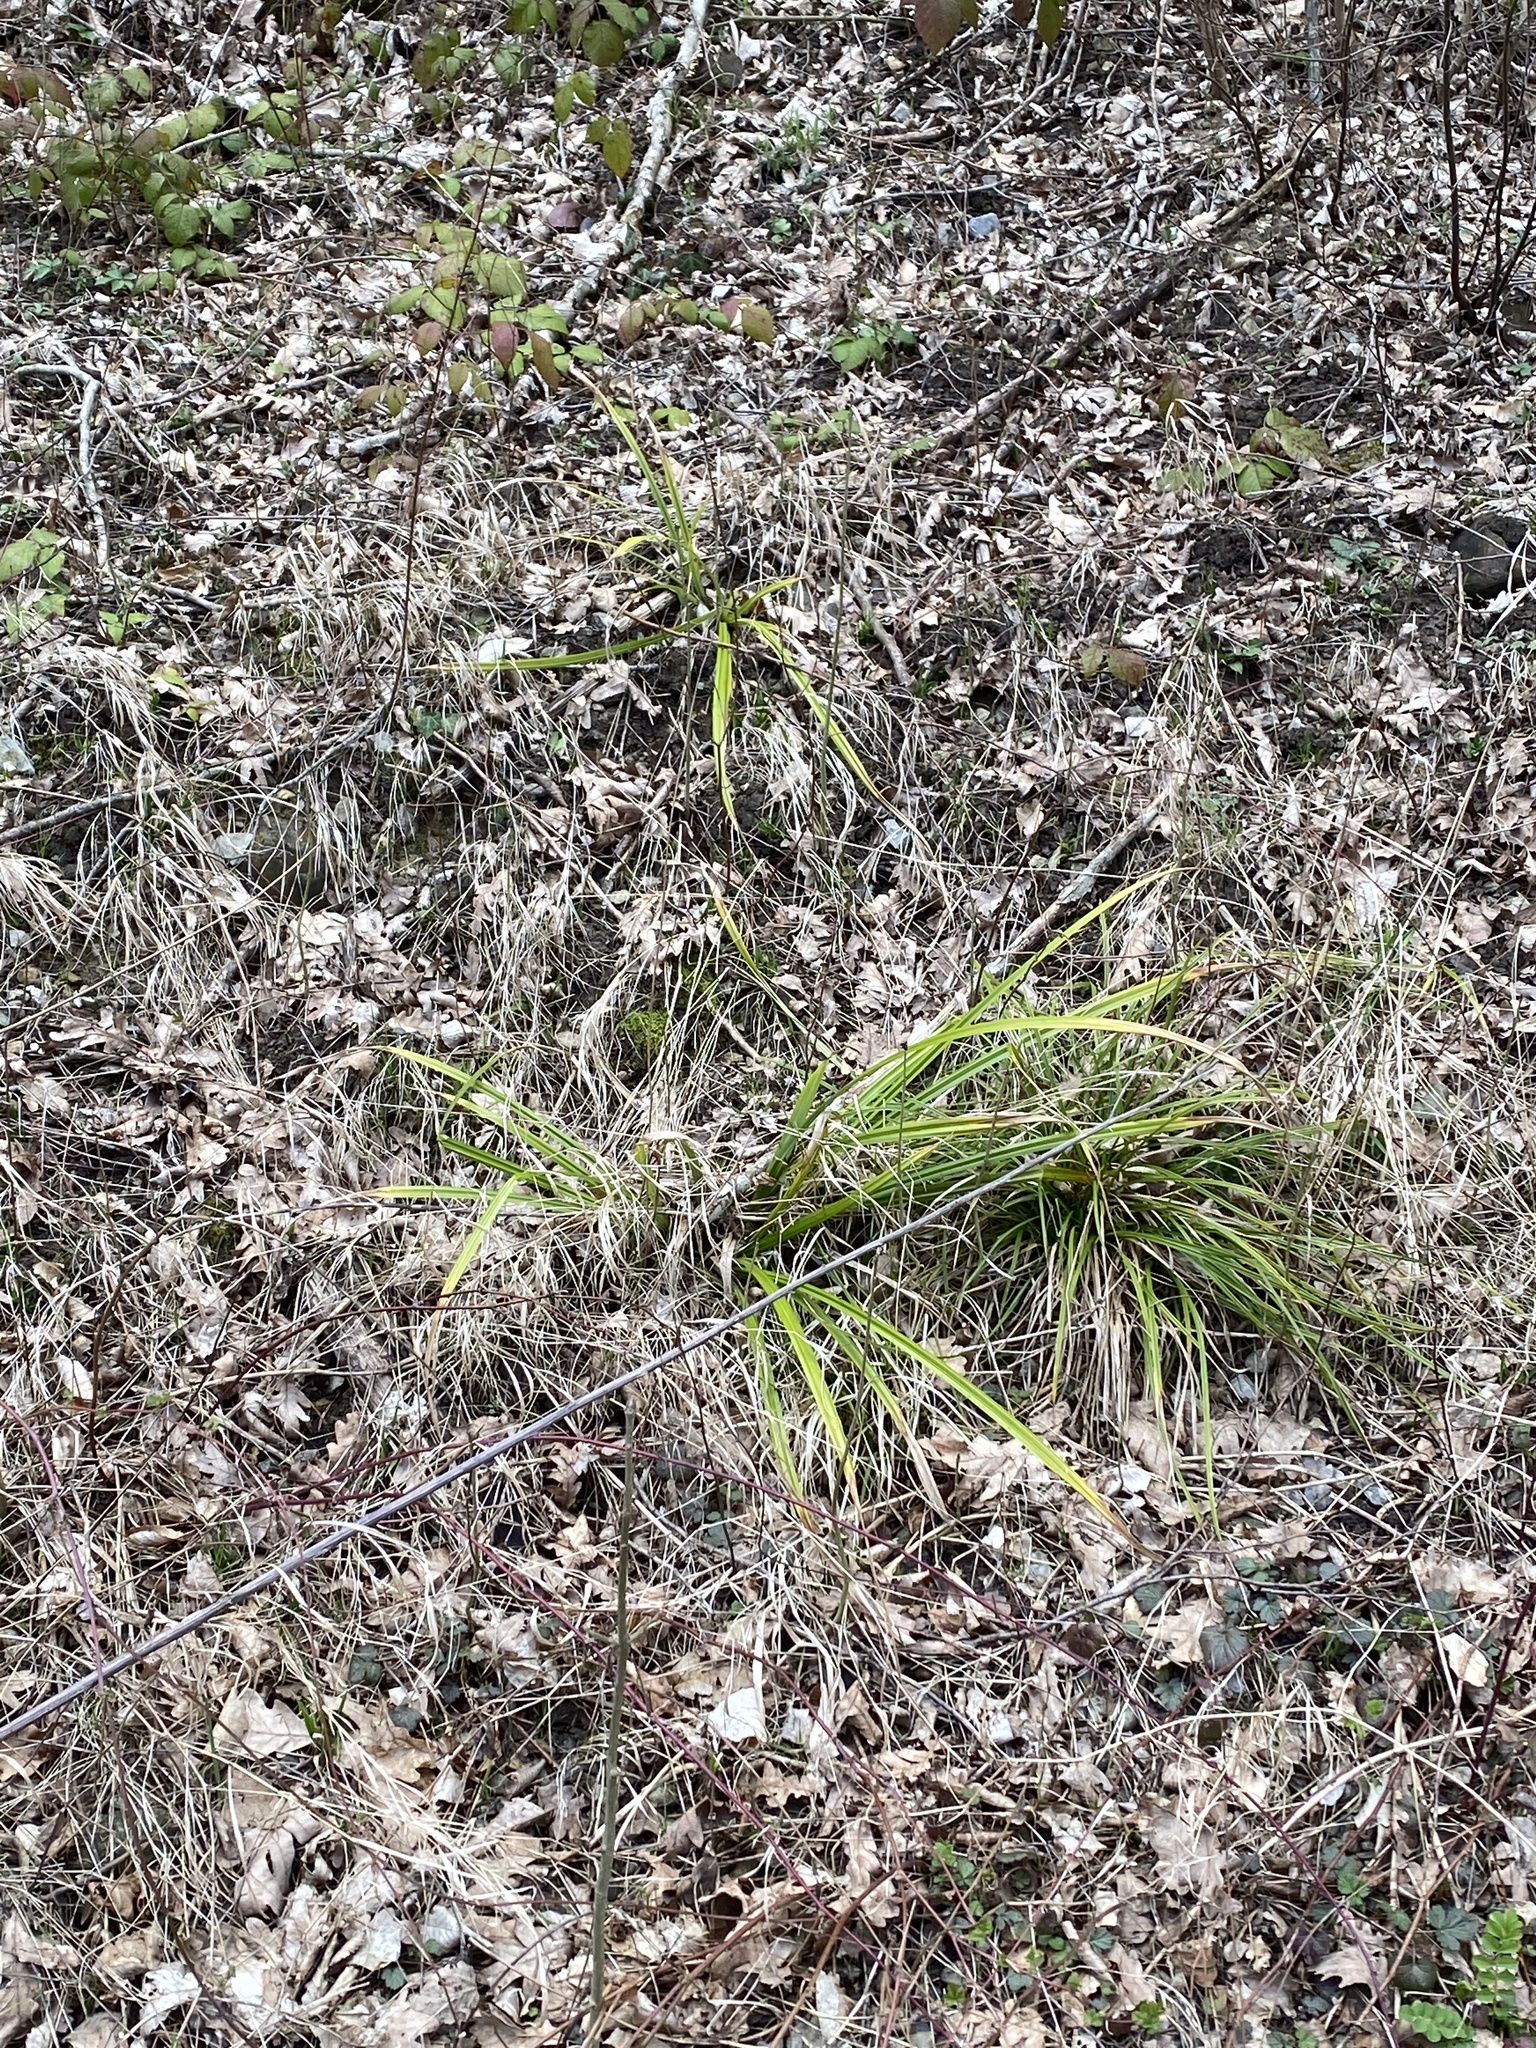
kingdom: Plantae
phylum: Tracheophyta
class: Liliopsida
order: Poales
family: Cyperaceae
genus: Carex
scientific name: Carex pendula
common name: Pendulous sedge
